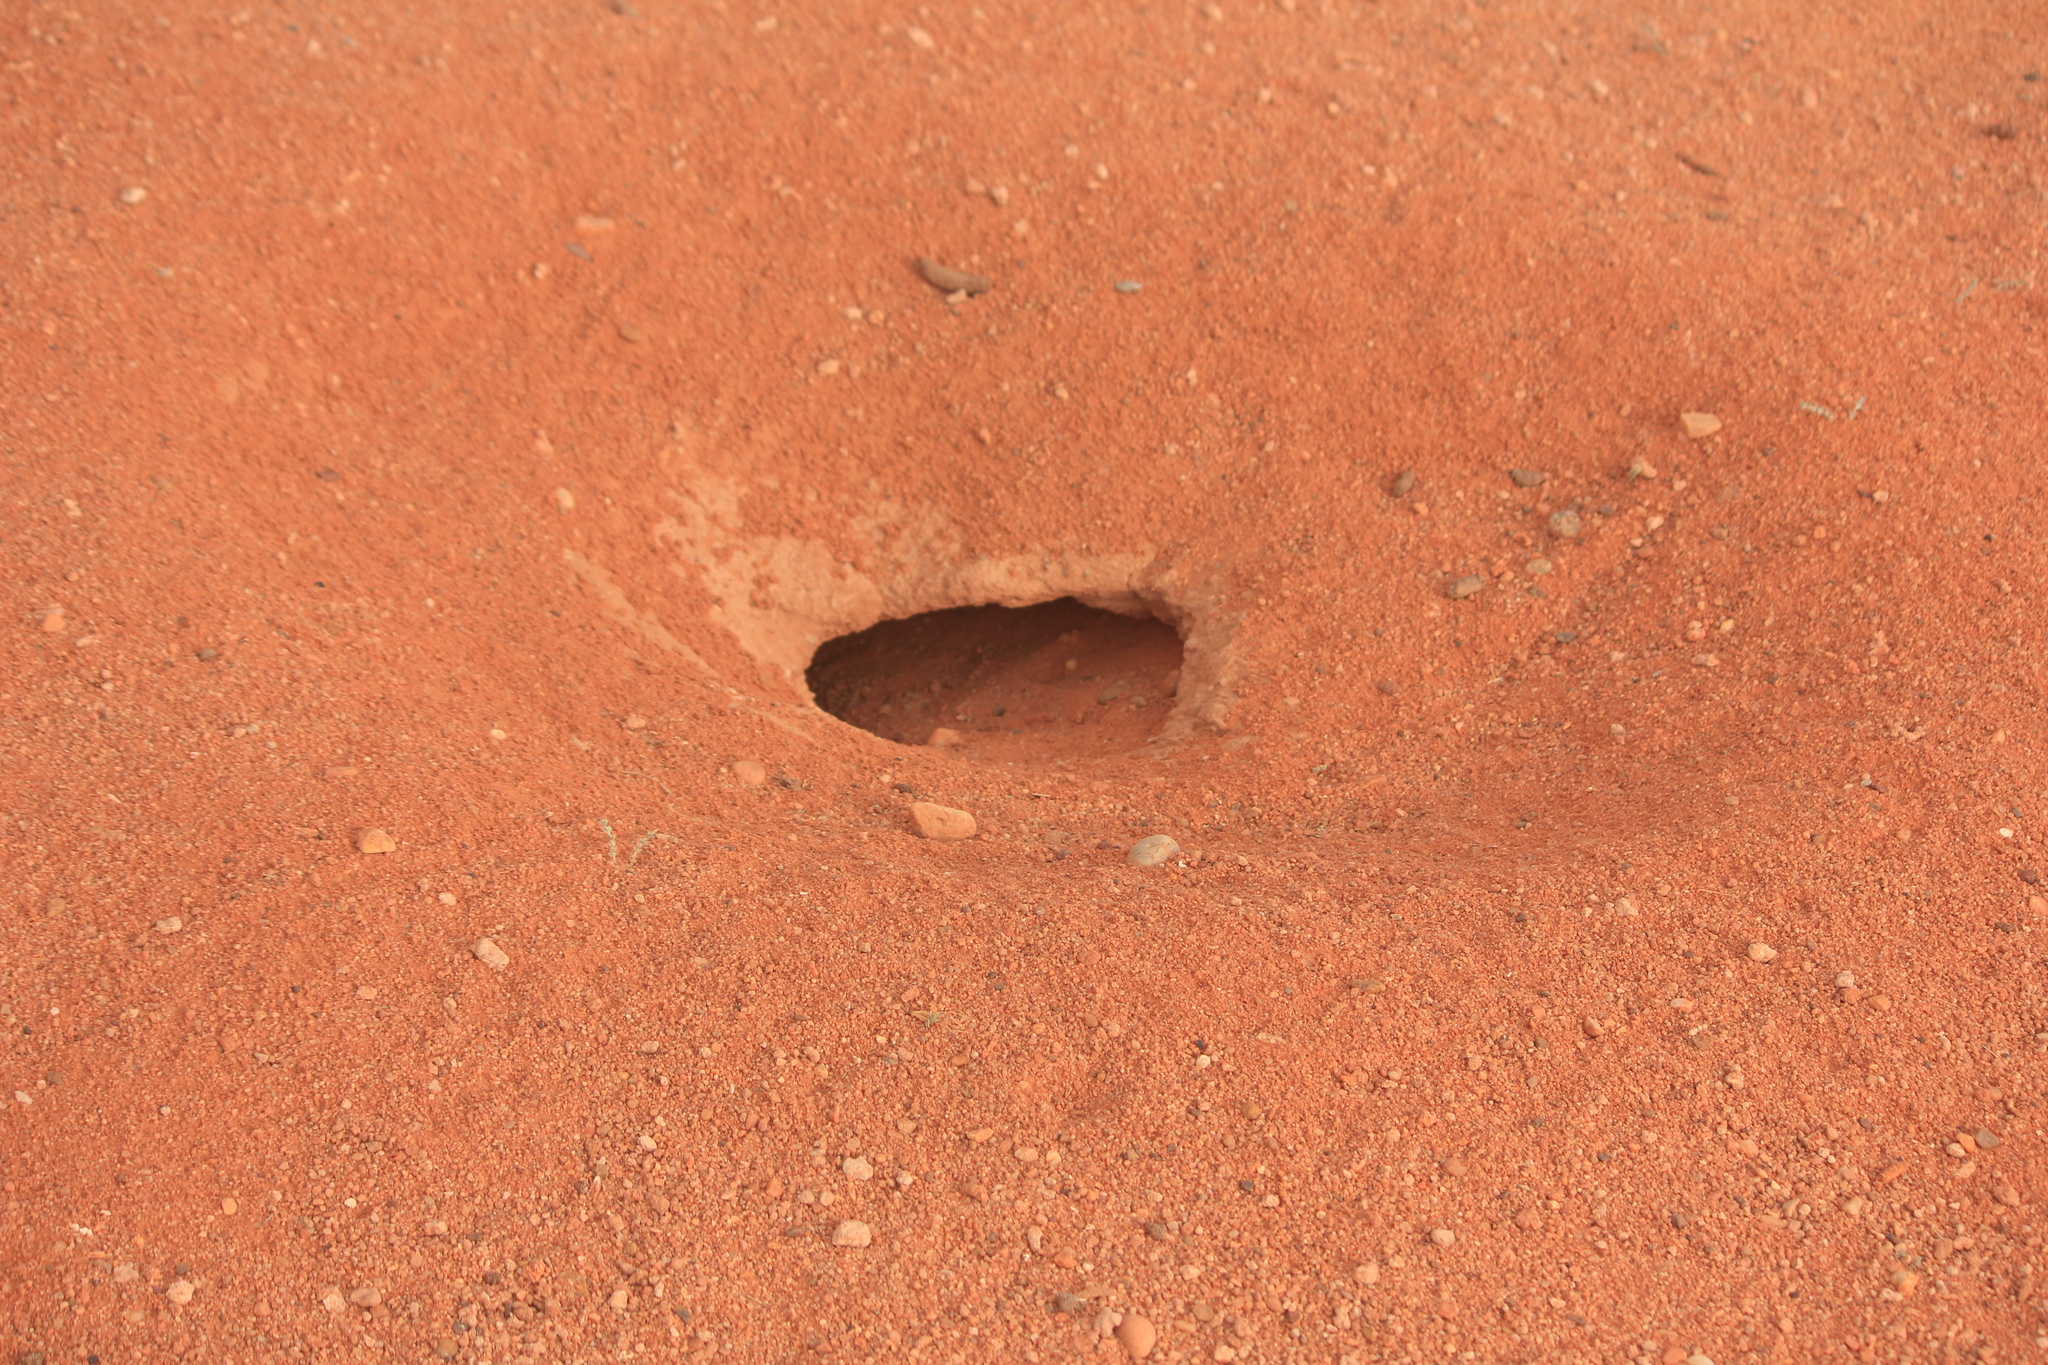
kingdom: Animalia
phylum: Chordata
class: Squamata
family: Agamidae
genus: Uromastyx
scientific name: Uromastyx aegyptia
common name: Egyptian mastigure
